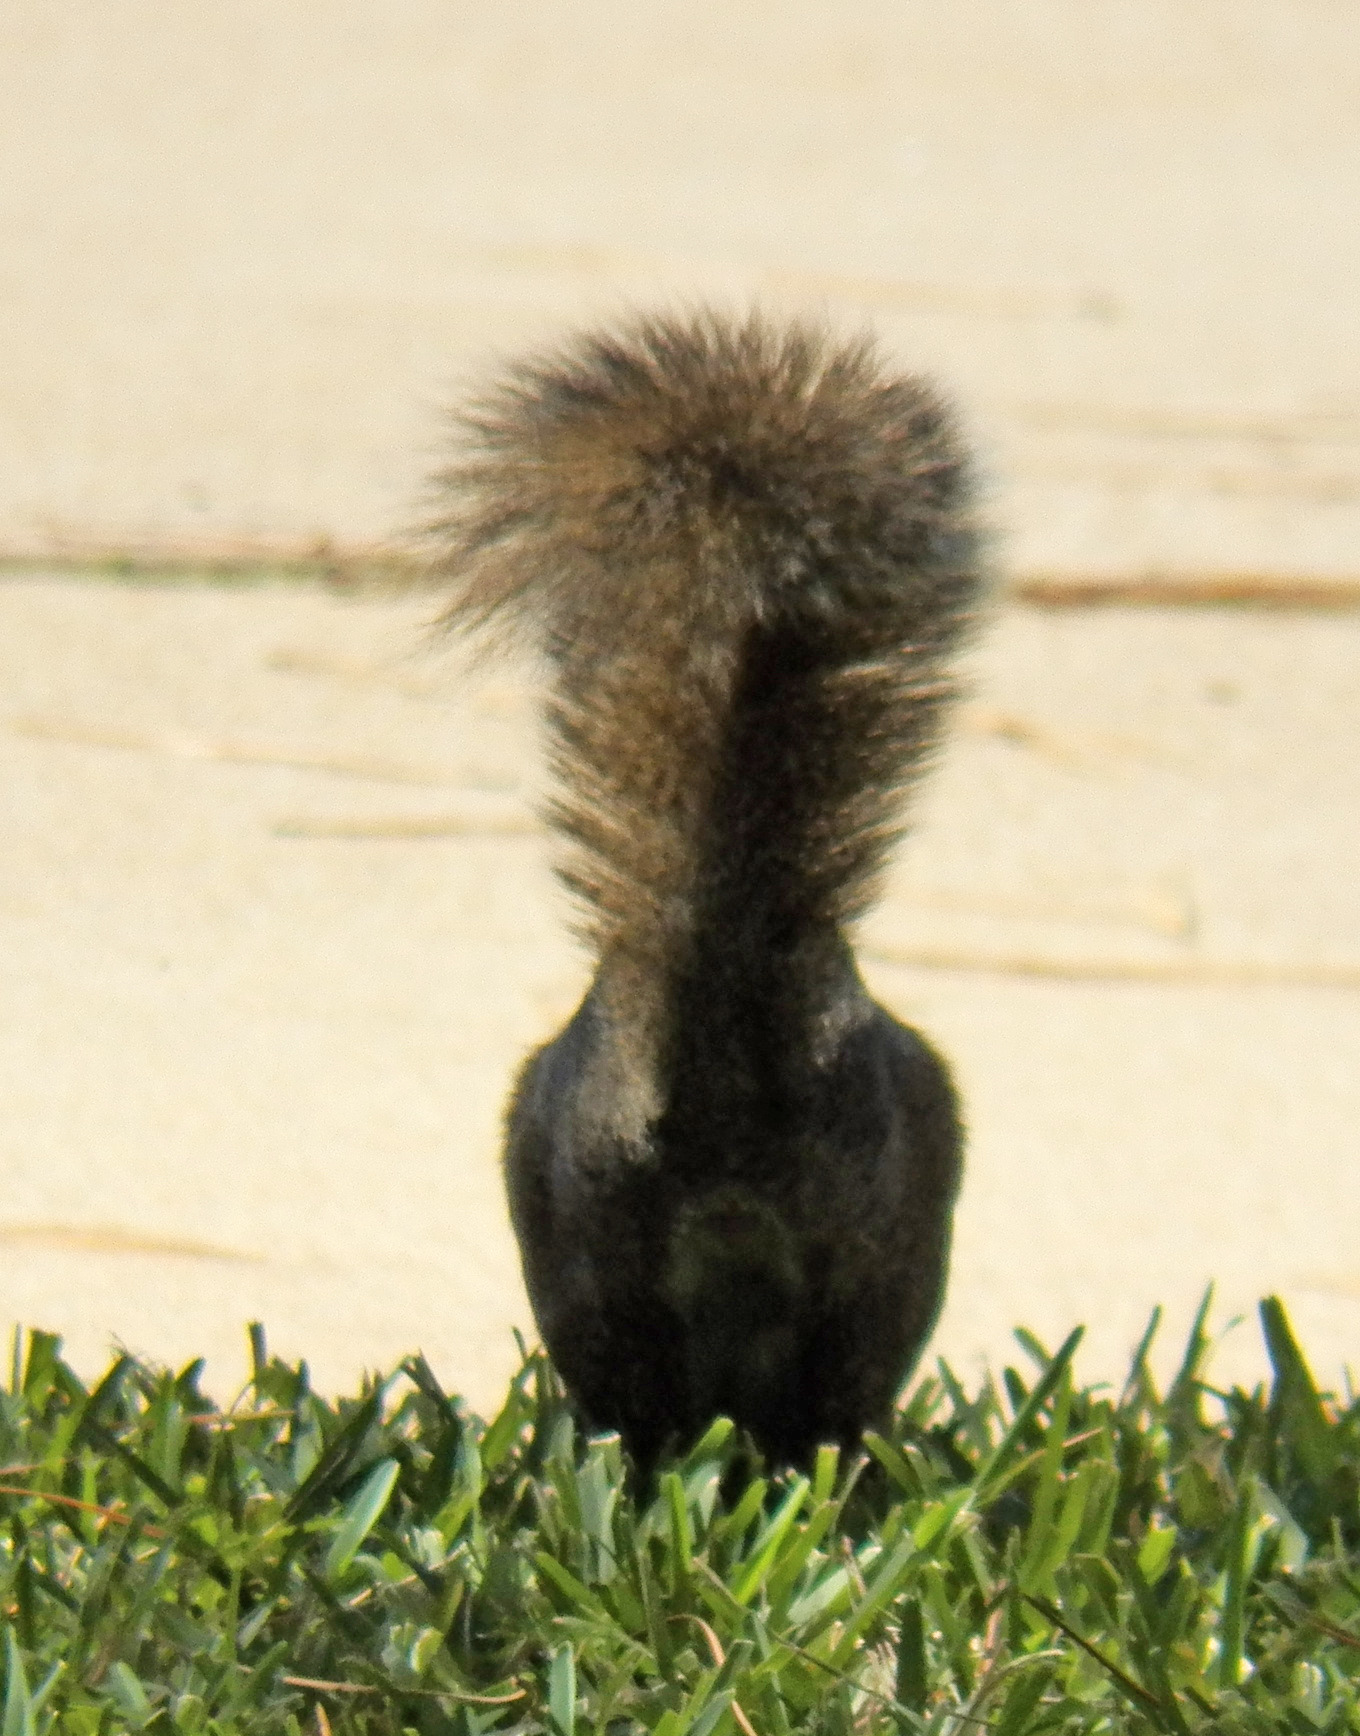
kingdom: Animalia
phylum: Chordata
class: Mammalia
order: Rodentia
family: Sciuridae
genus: Sciurus
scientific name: Sciurus carolinensis
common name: Eastern gray squirrel
